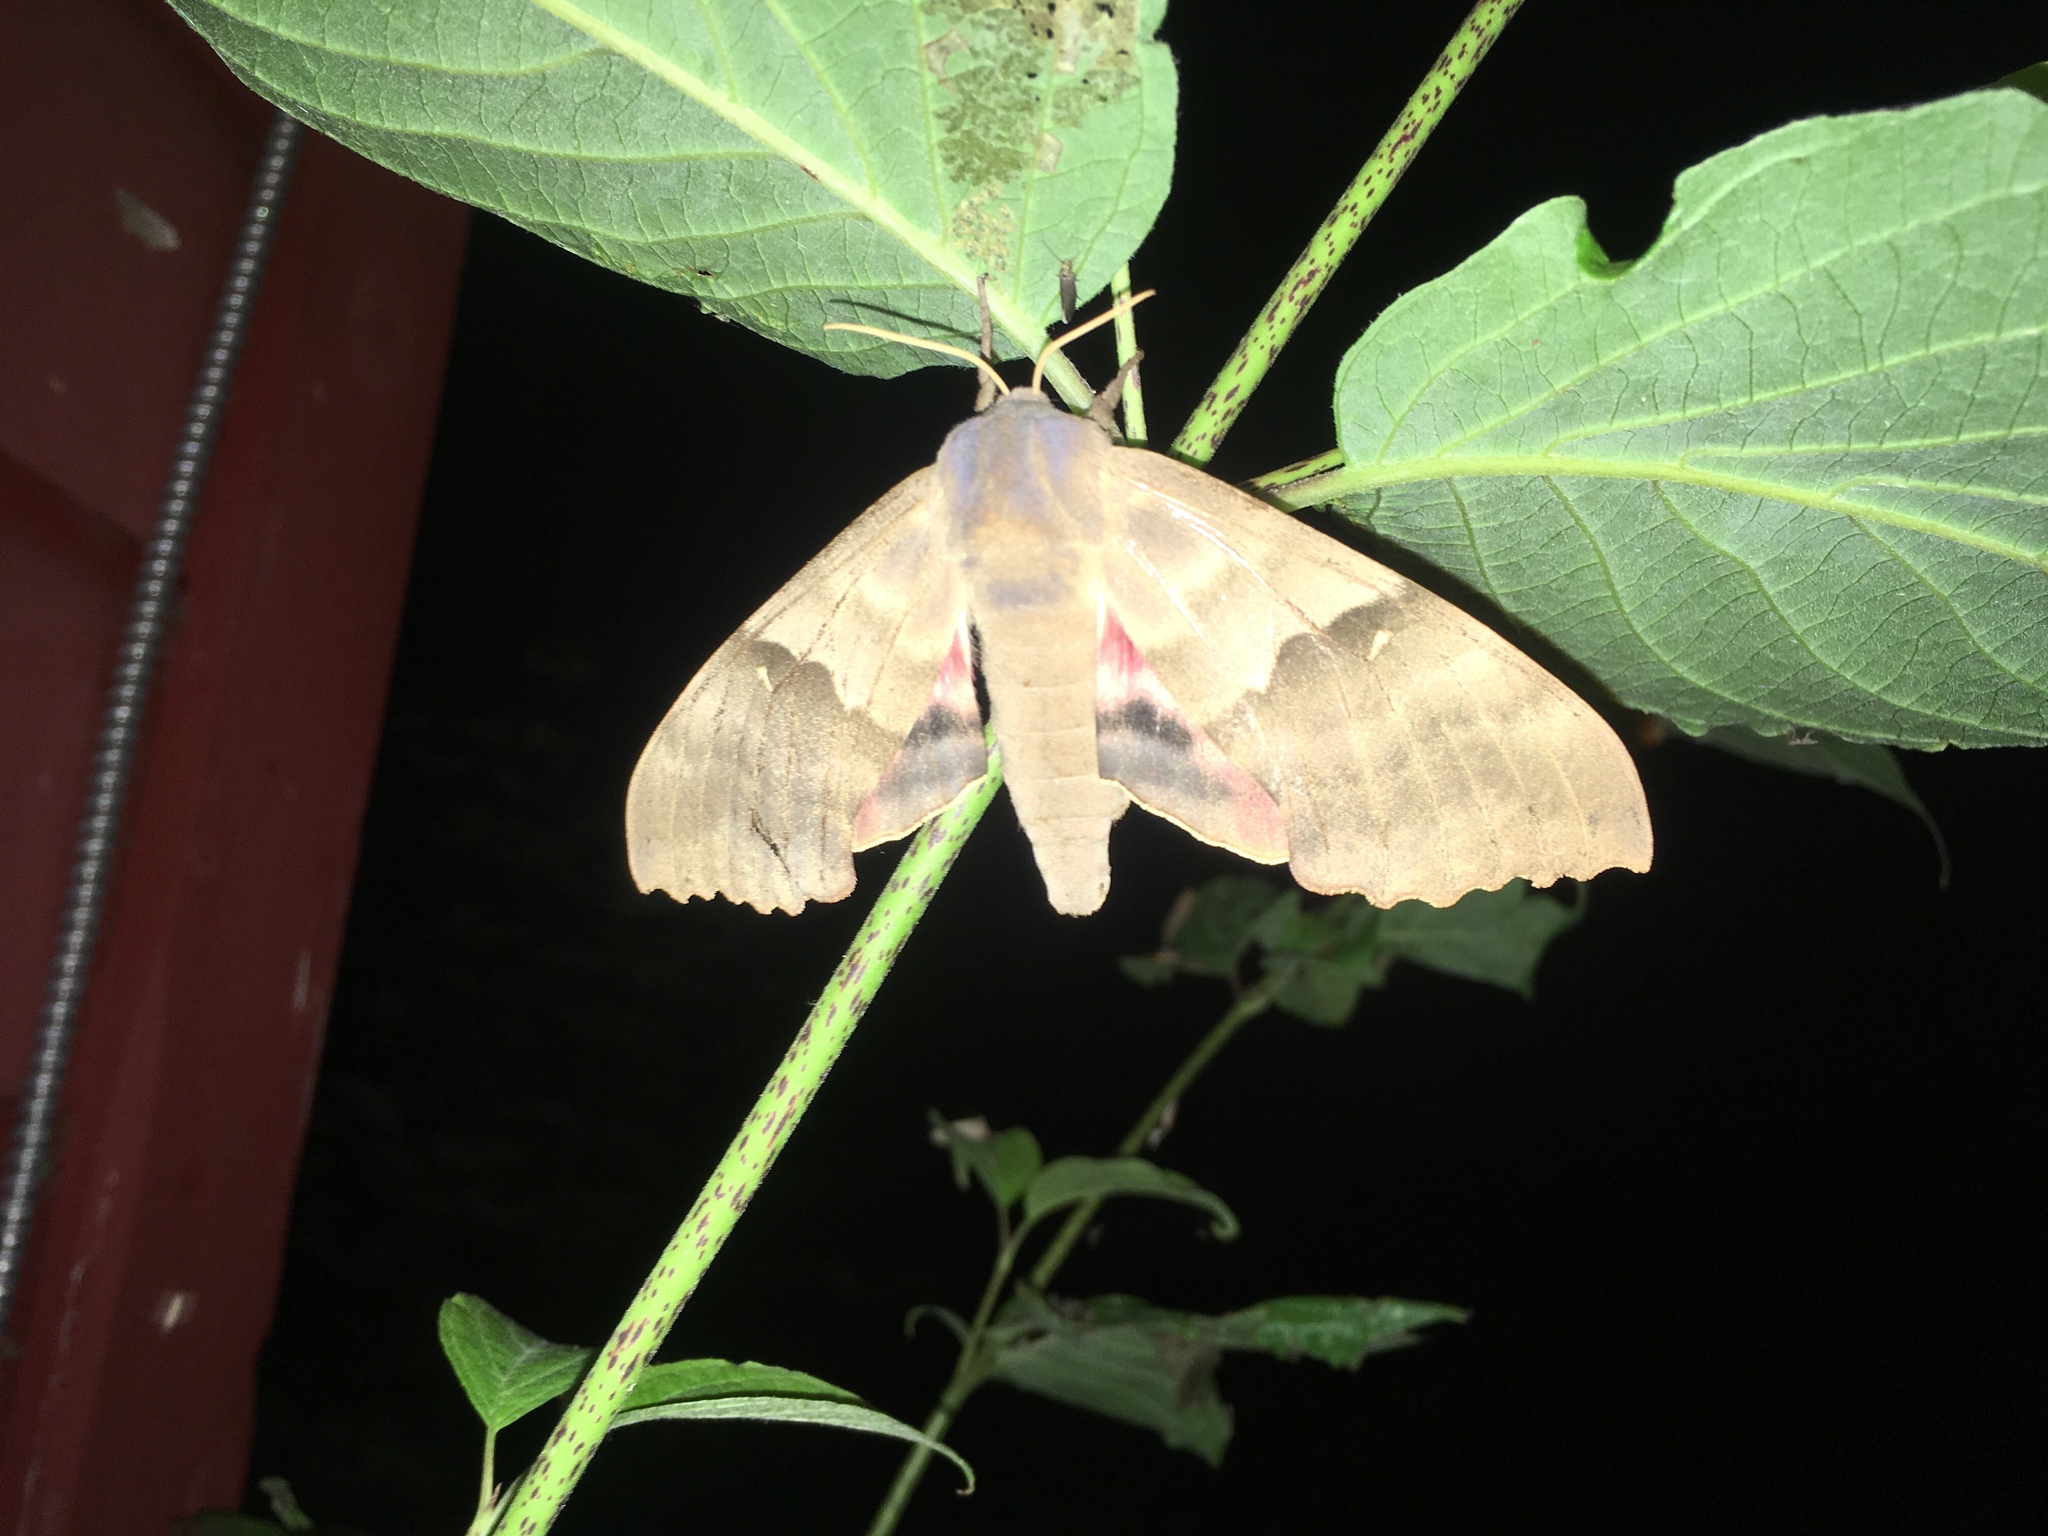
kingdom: Animalia
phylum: Arthropoda
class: Insecta
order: Lepidoptera
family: Sphingidae
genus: Pachysphinx
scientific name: Pachysphinx modesta
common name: Big poplar sphinx
